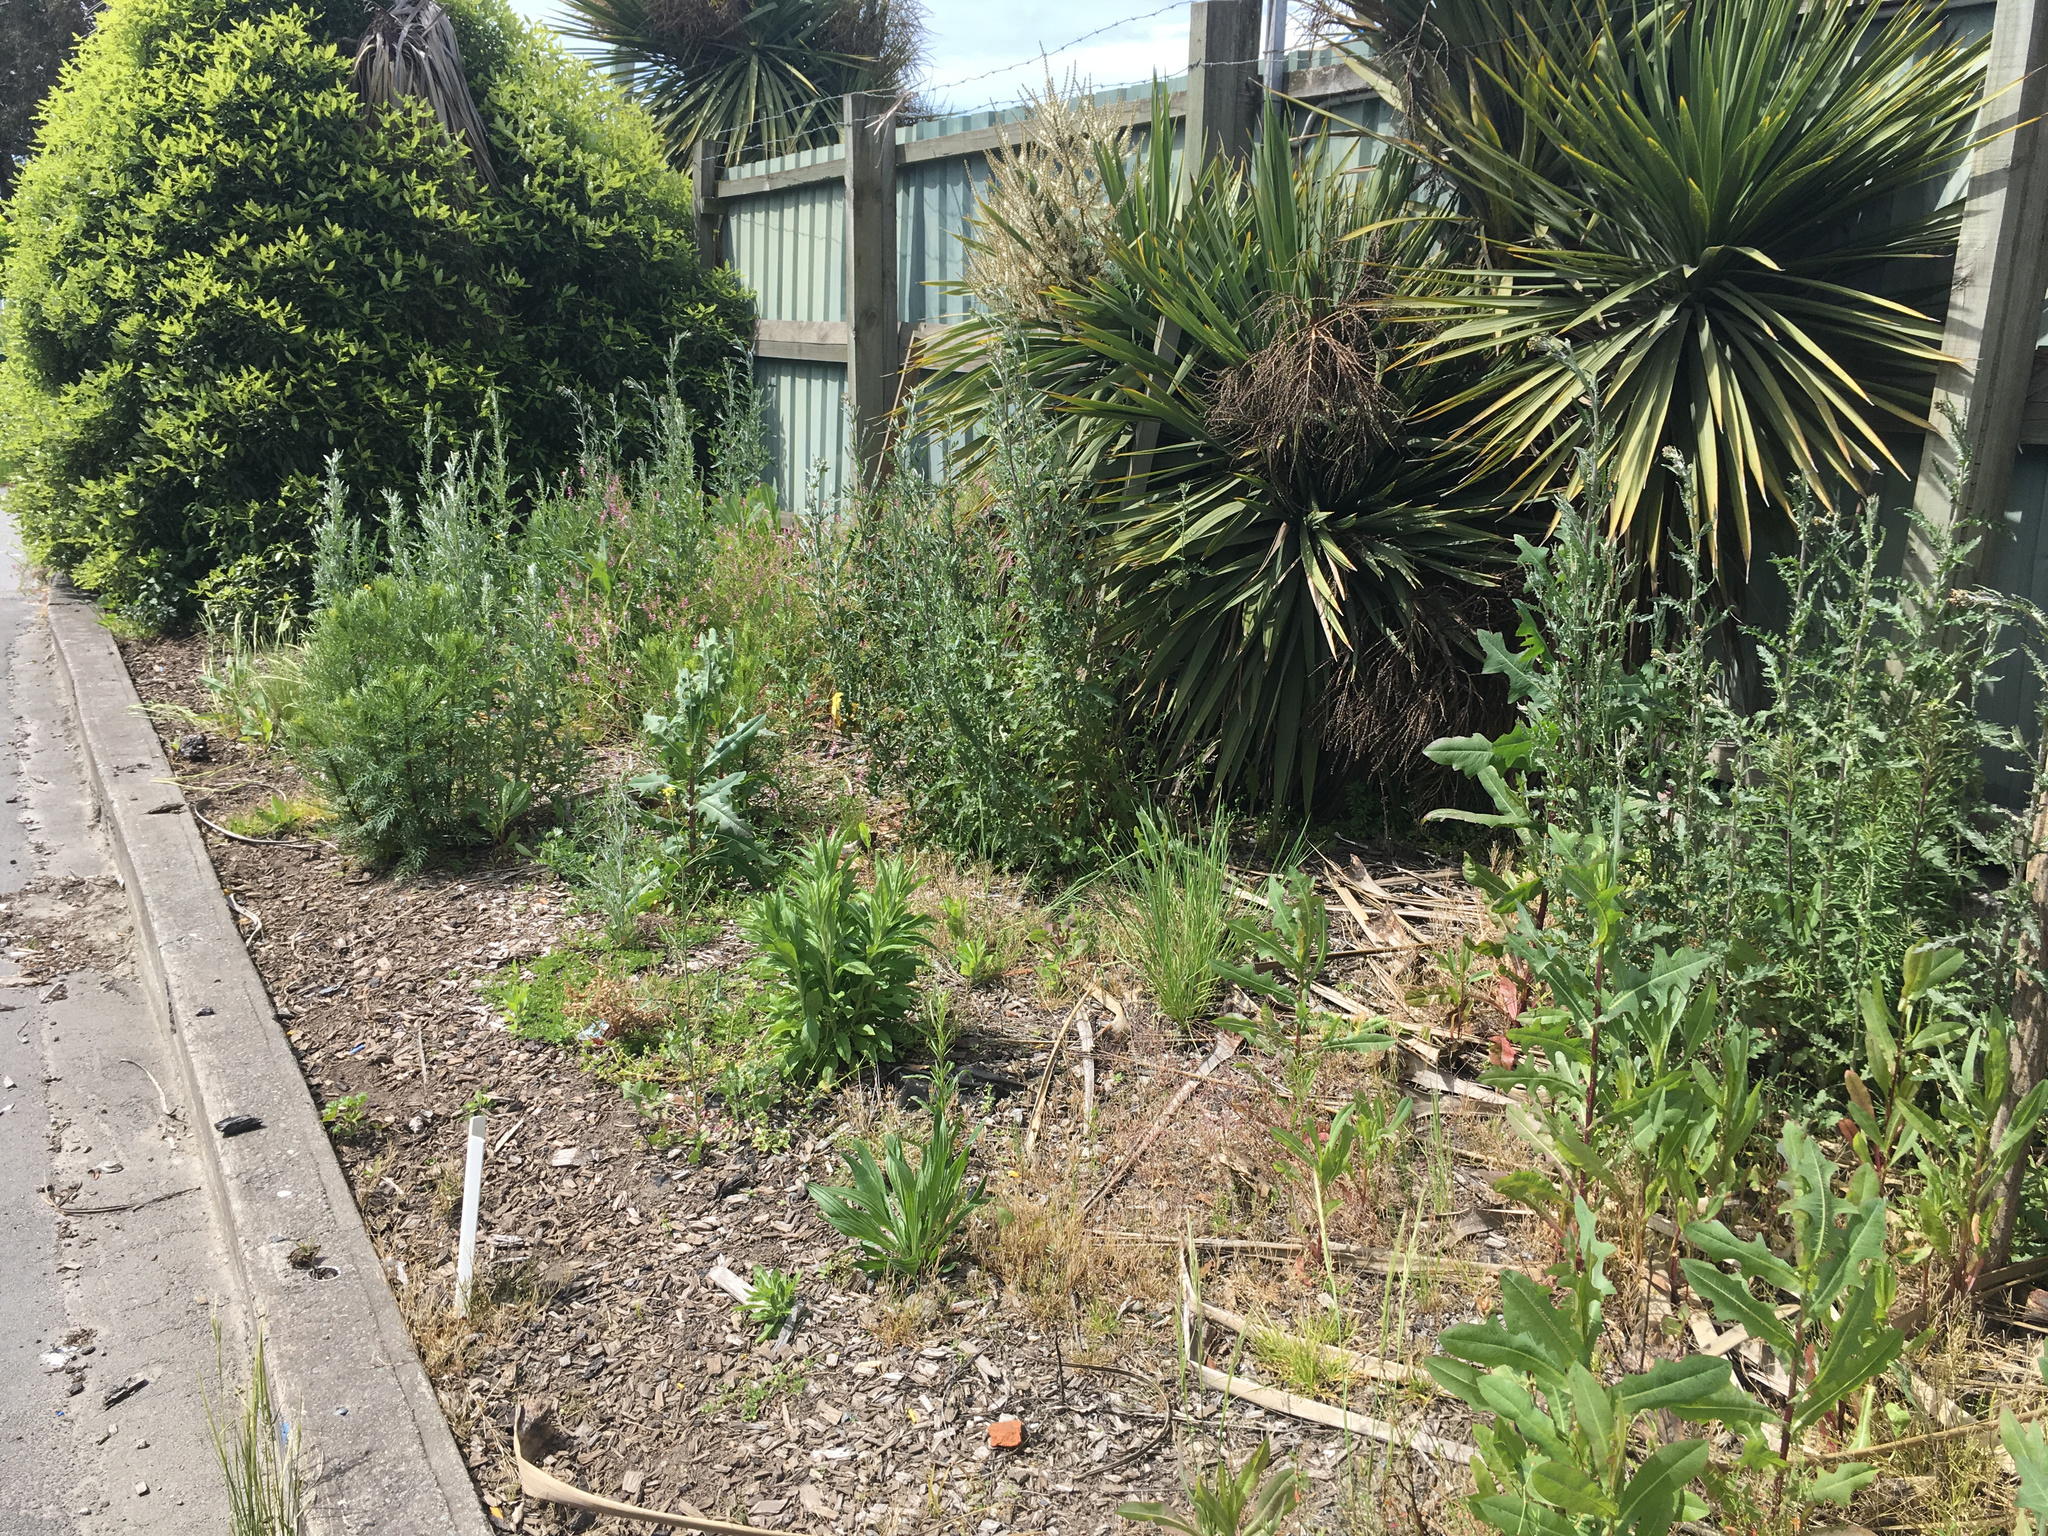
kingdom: Plantae
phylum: Tracheophyta
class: Magnoliopsida
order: Asterales
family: Asteraceae
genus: Senecio
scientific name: Senecio bipinnatisectus
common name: Australian fireweed
